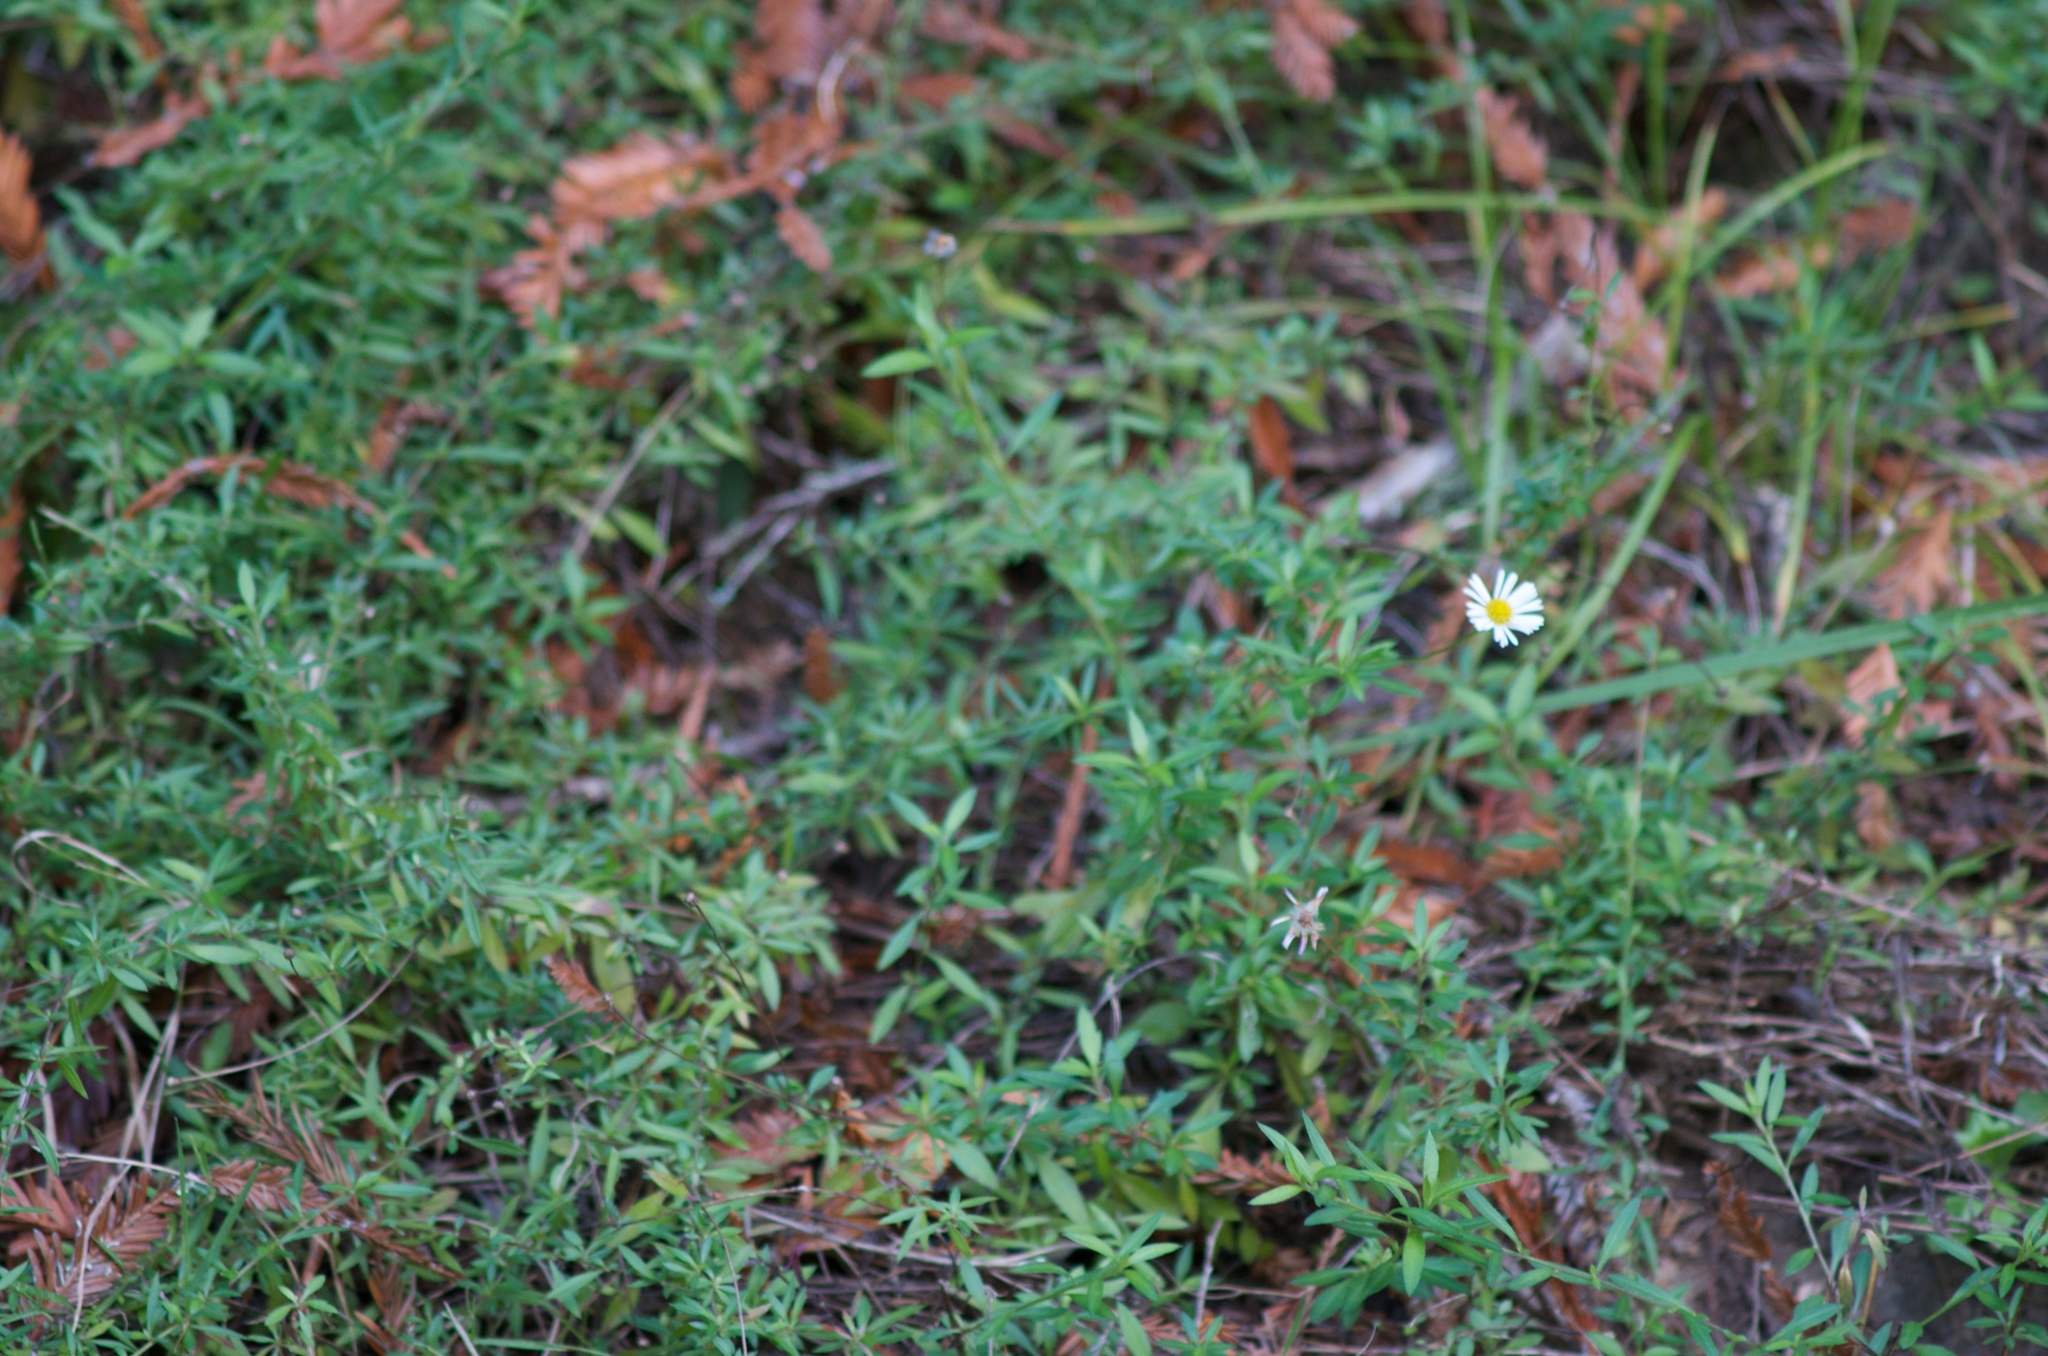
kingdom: Plantae
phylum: Tracheophyta
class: Magnoliopsida
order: Asterales
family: Asteraceae
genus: Erigeron
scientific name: Erigeron karvinskianus
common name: Mexican fleabane
